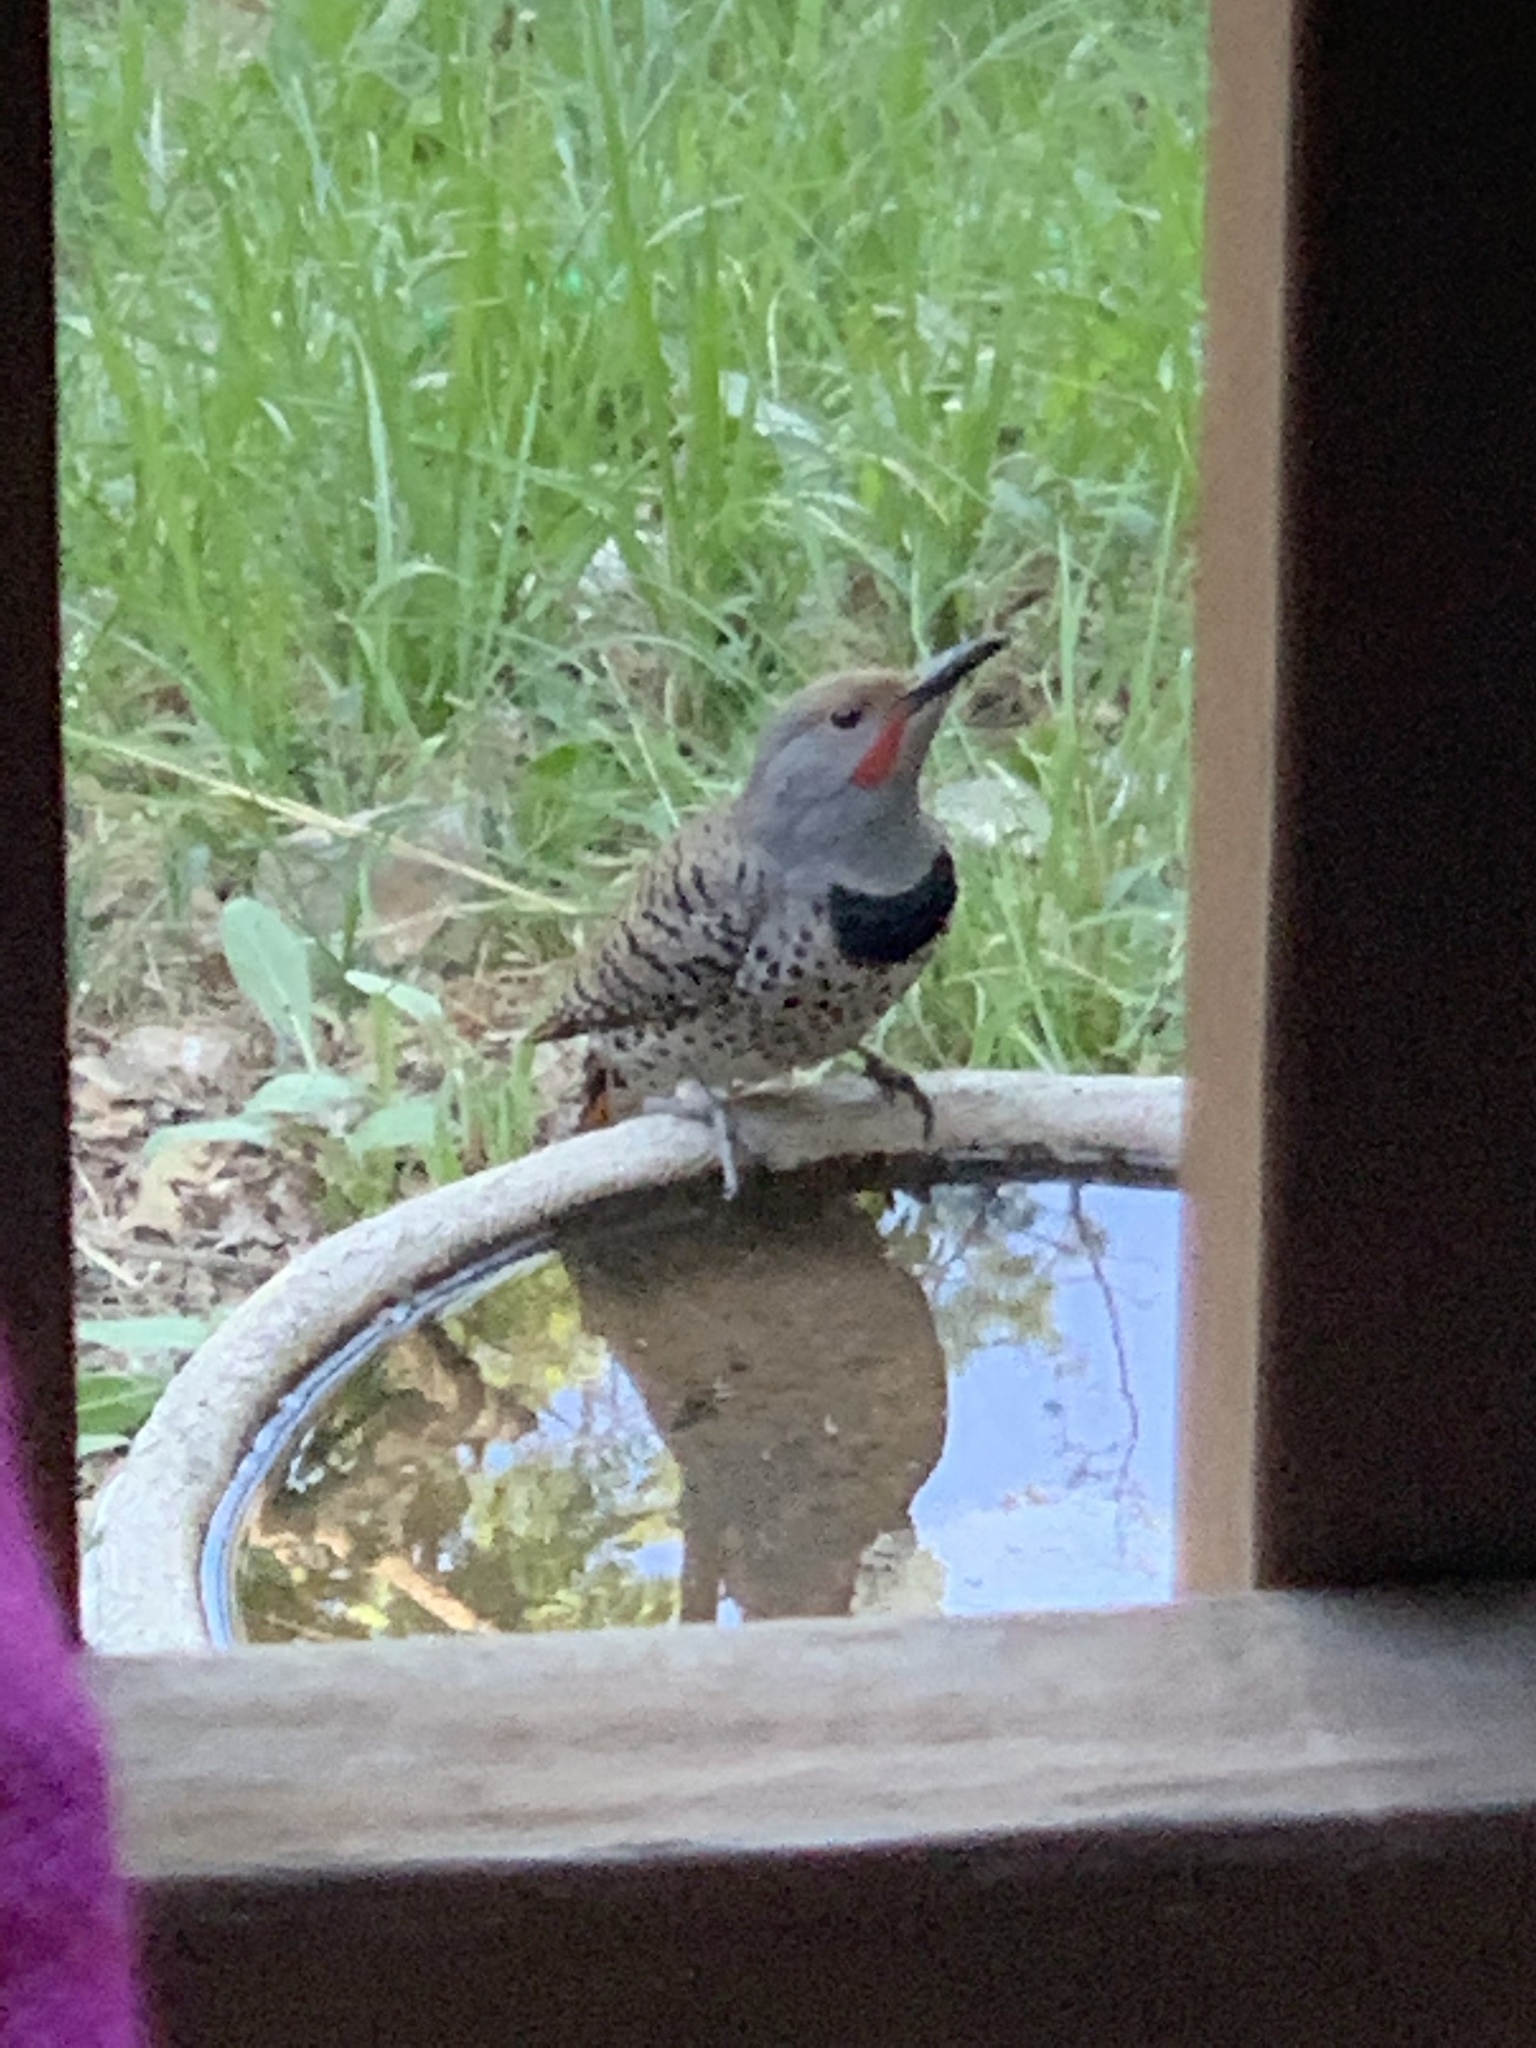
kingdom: Animalia
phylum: Chordata
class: Aves
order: Piciformes
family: Picidae
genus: Colaptes
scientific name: Colaptes auratus
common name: Northern flicker
